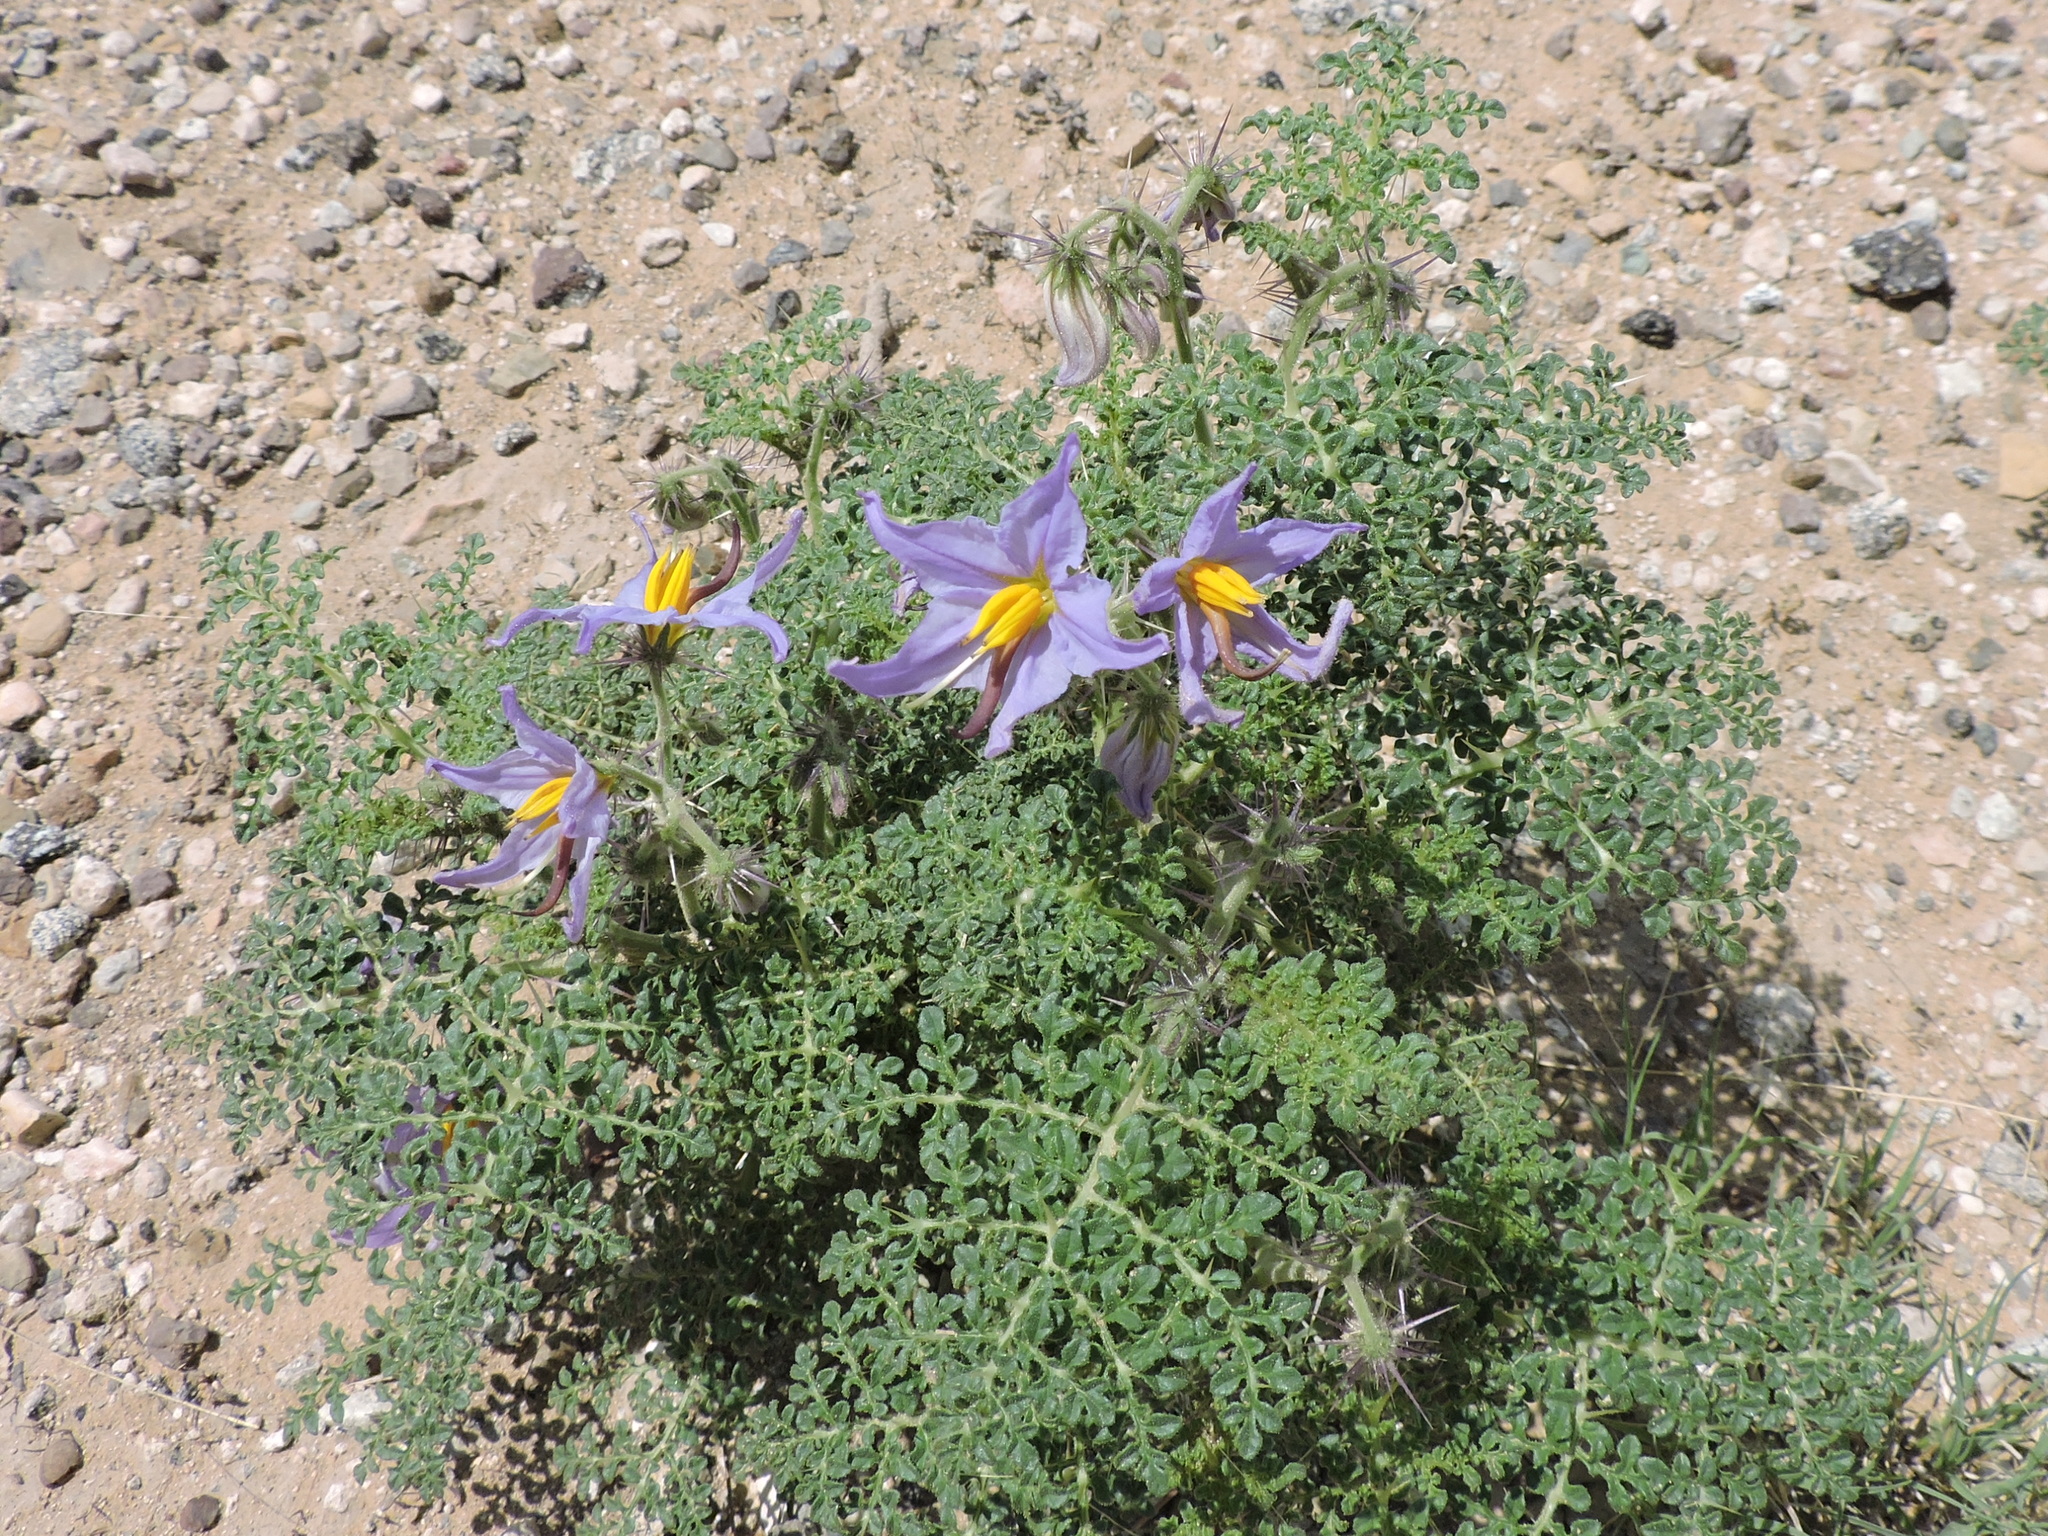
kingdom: Plantae
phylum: Tracheophyta
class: Magnoliopsida
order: Solanales
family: Solanaceae
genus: Solanum
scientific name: Solanum citrullifolium
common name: Melon-leaf nightshade
